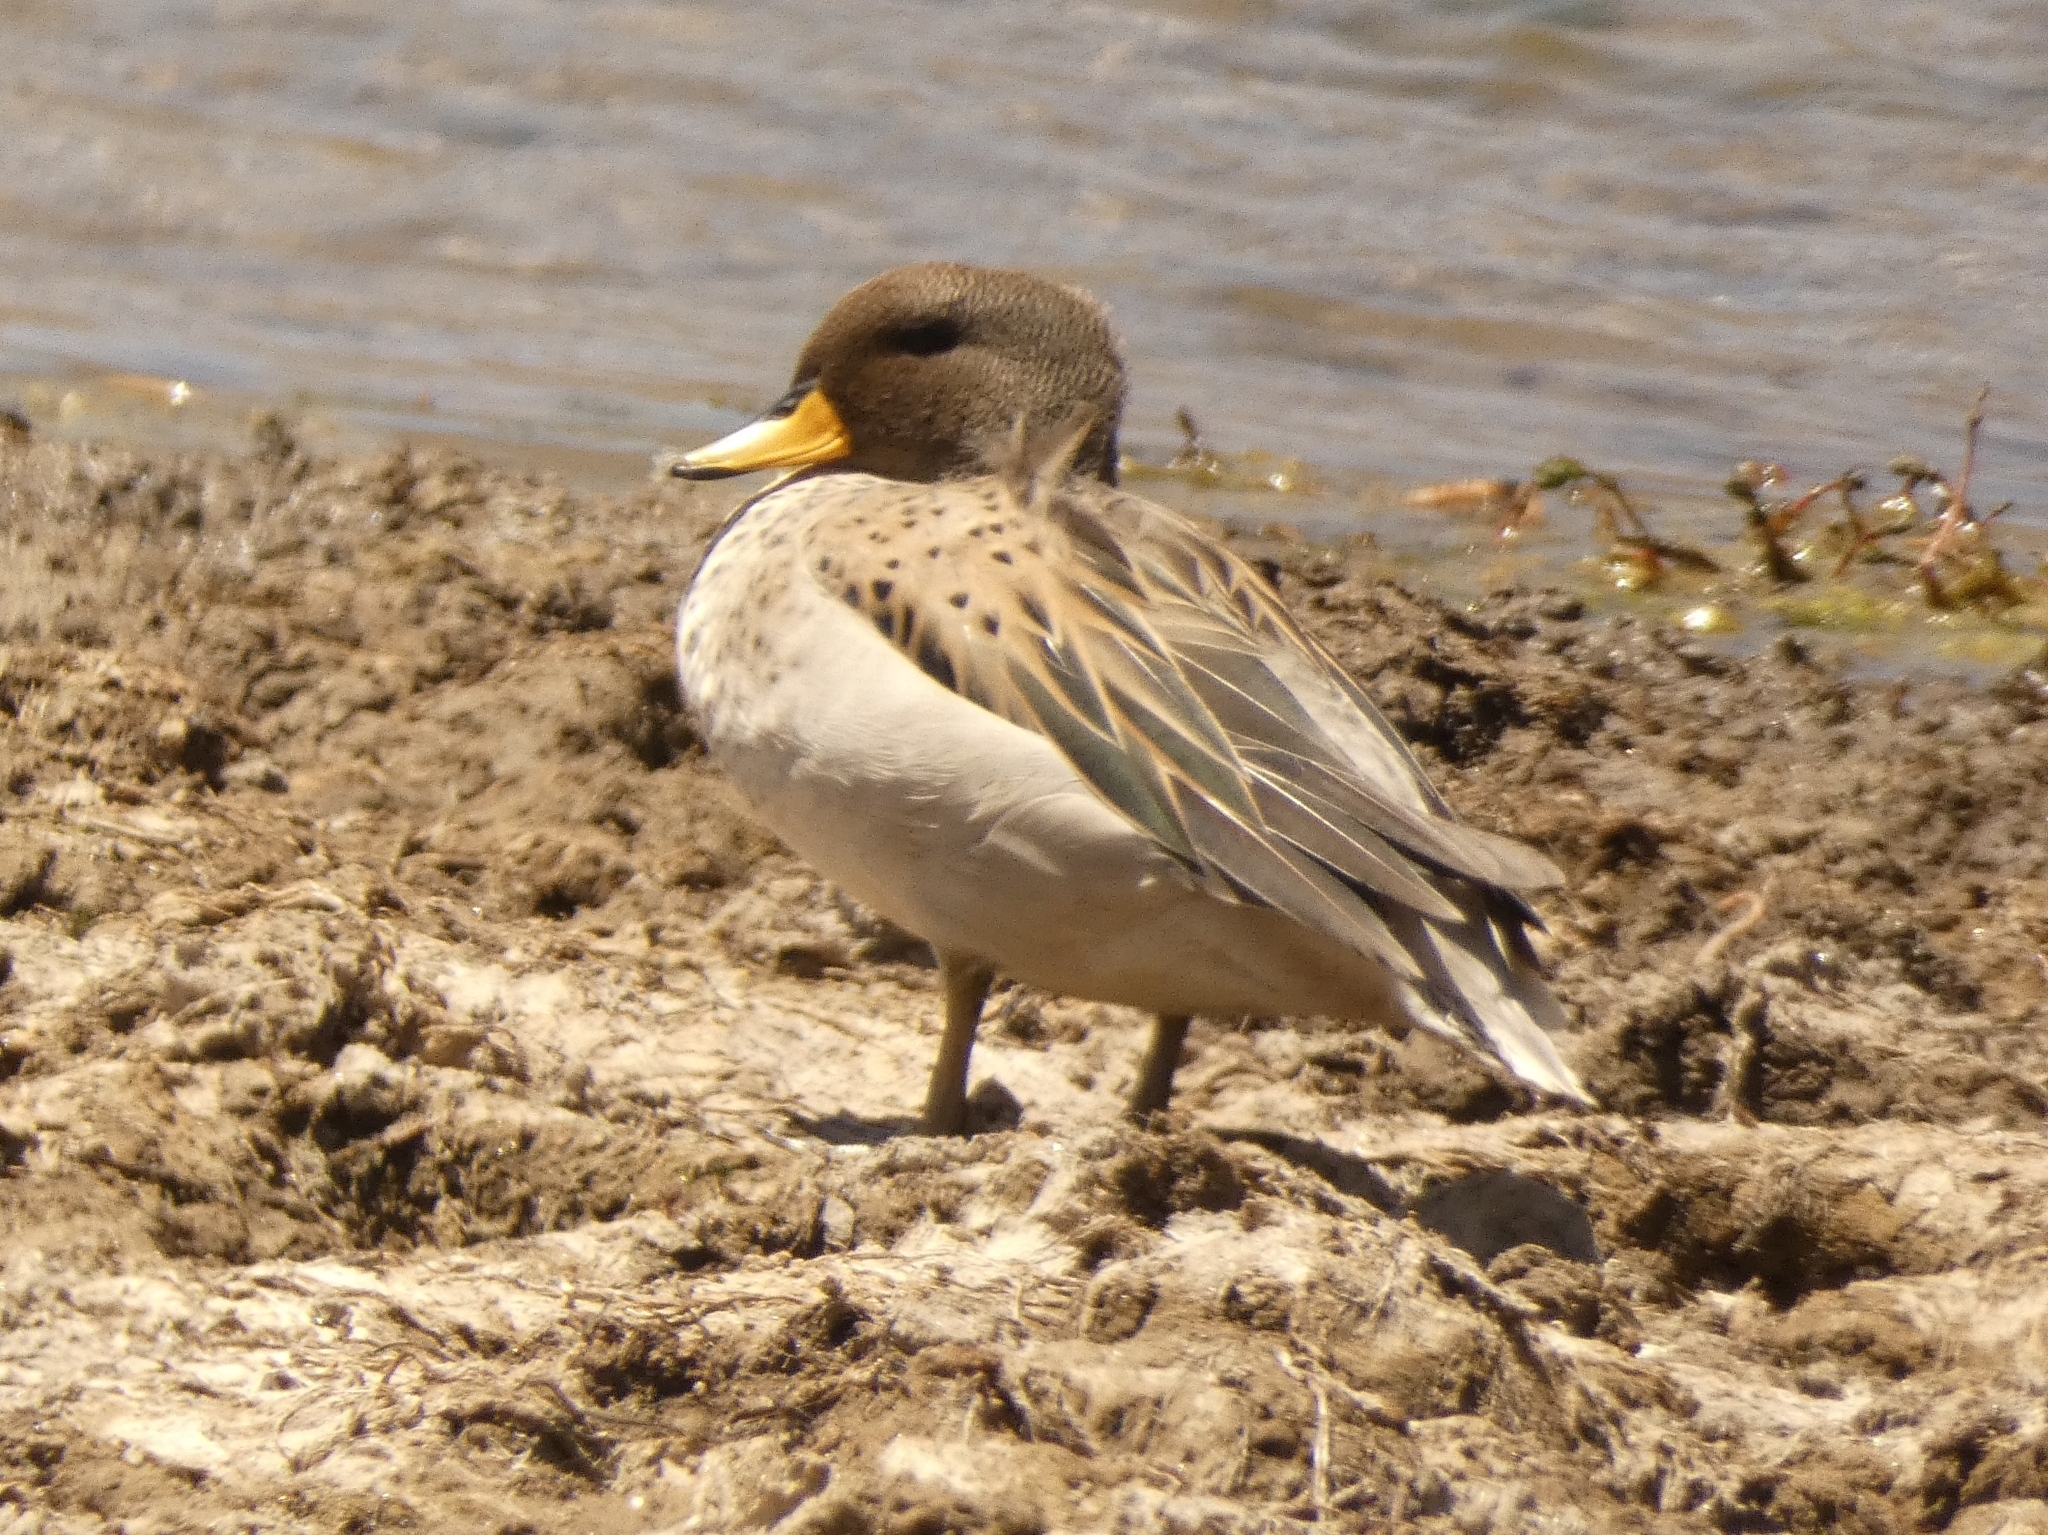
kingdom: Animalia
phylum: Chordata
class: Aves
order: Anseriformes
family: Anatidae
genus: Anas
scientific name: Anas flavirostris
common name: Yellow-billed teal
